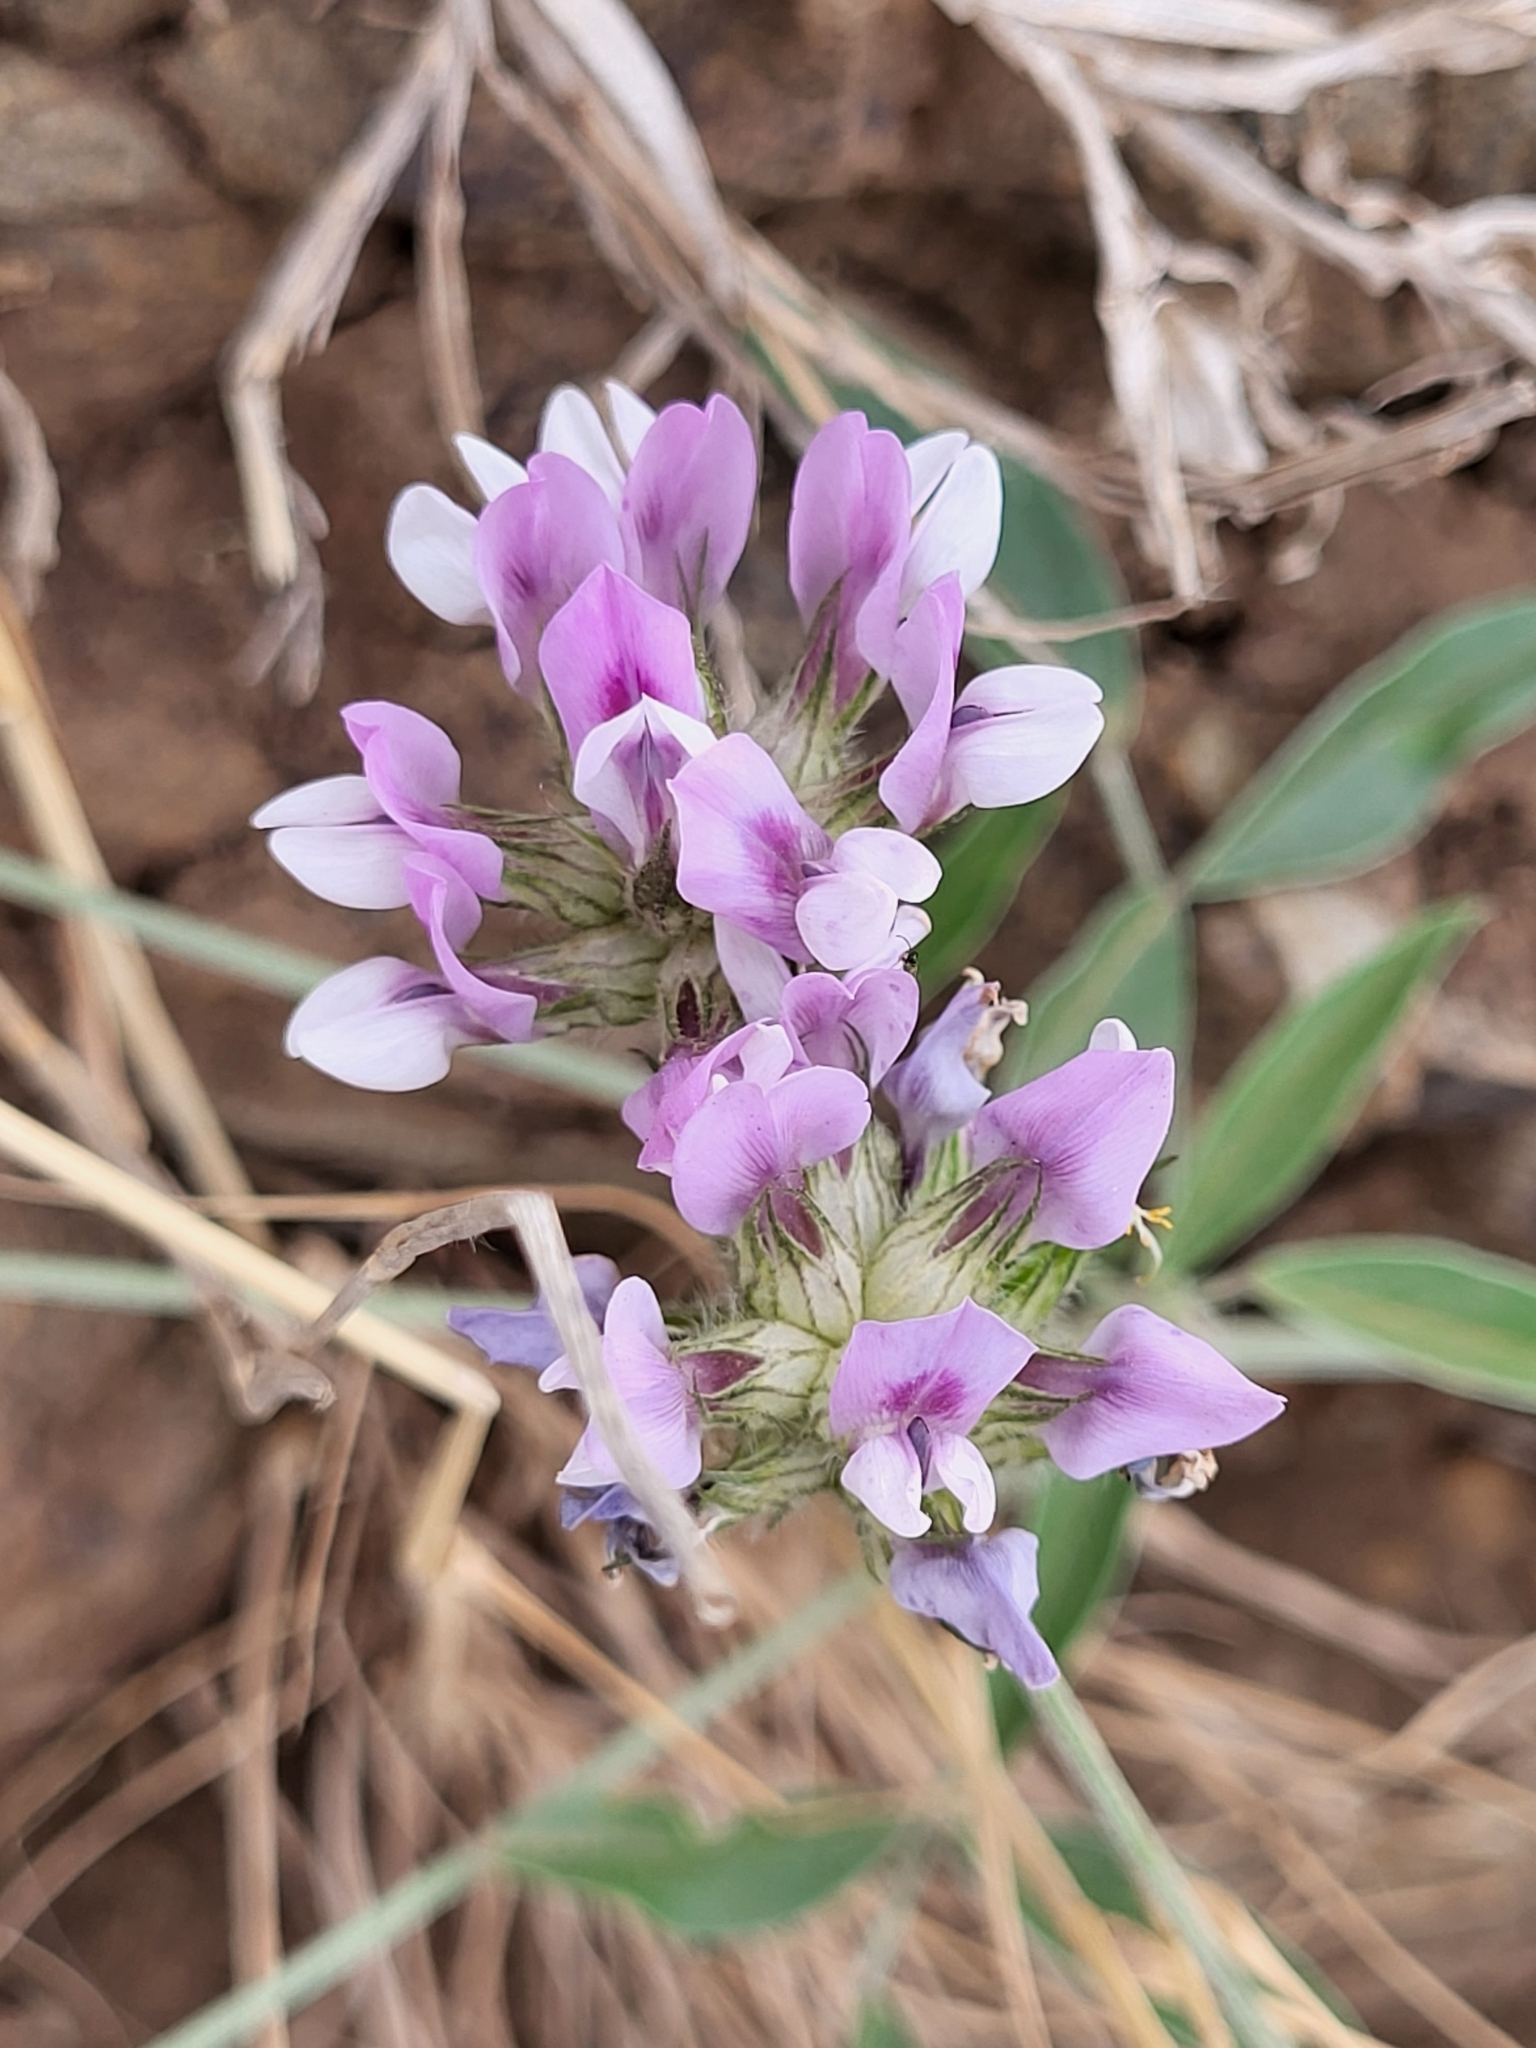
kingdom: Plantae
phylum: Tracheophyta
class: Magnoliopsida
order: Fabales
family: Fabaceae
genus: Bituminaria
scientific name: Bituminaria bituminosa
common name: Arabian pea
